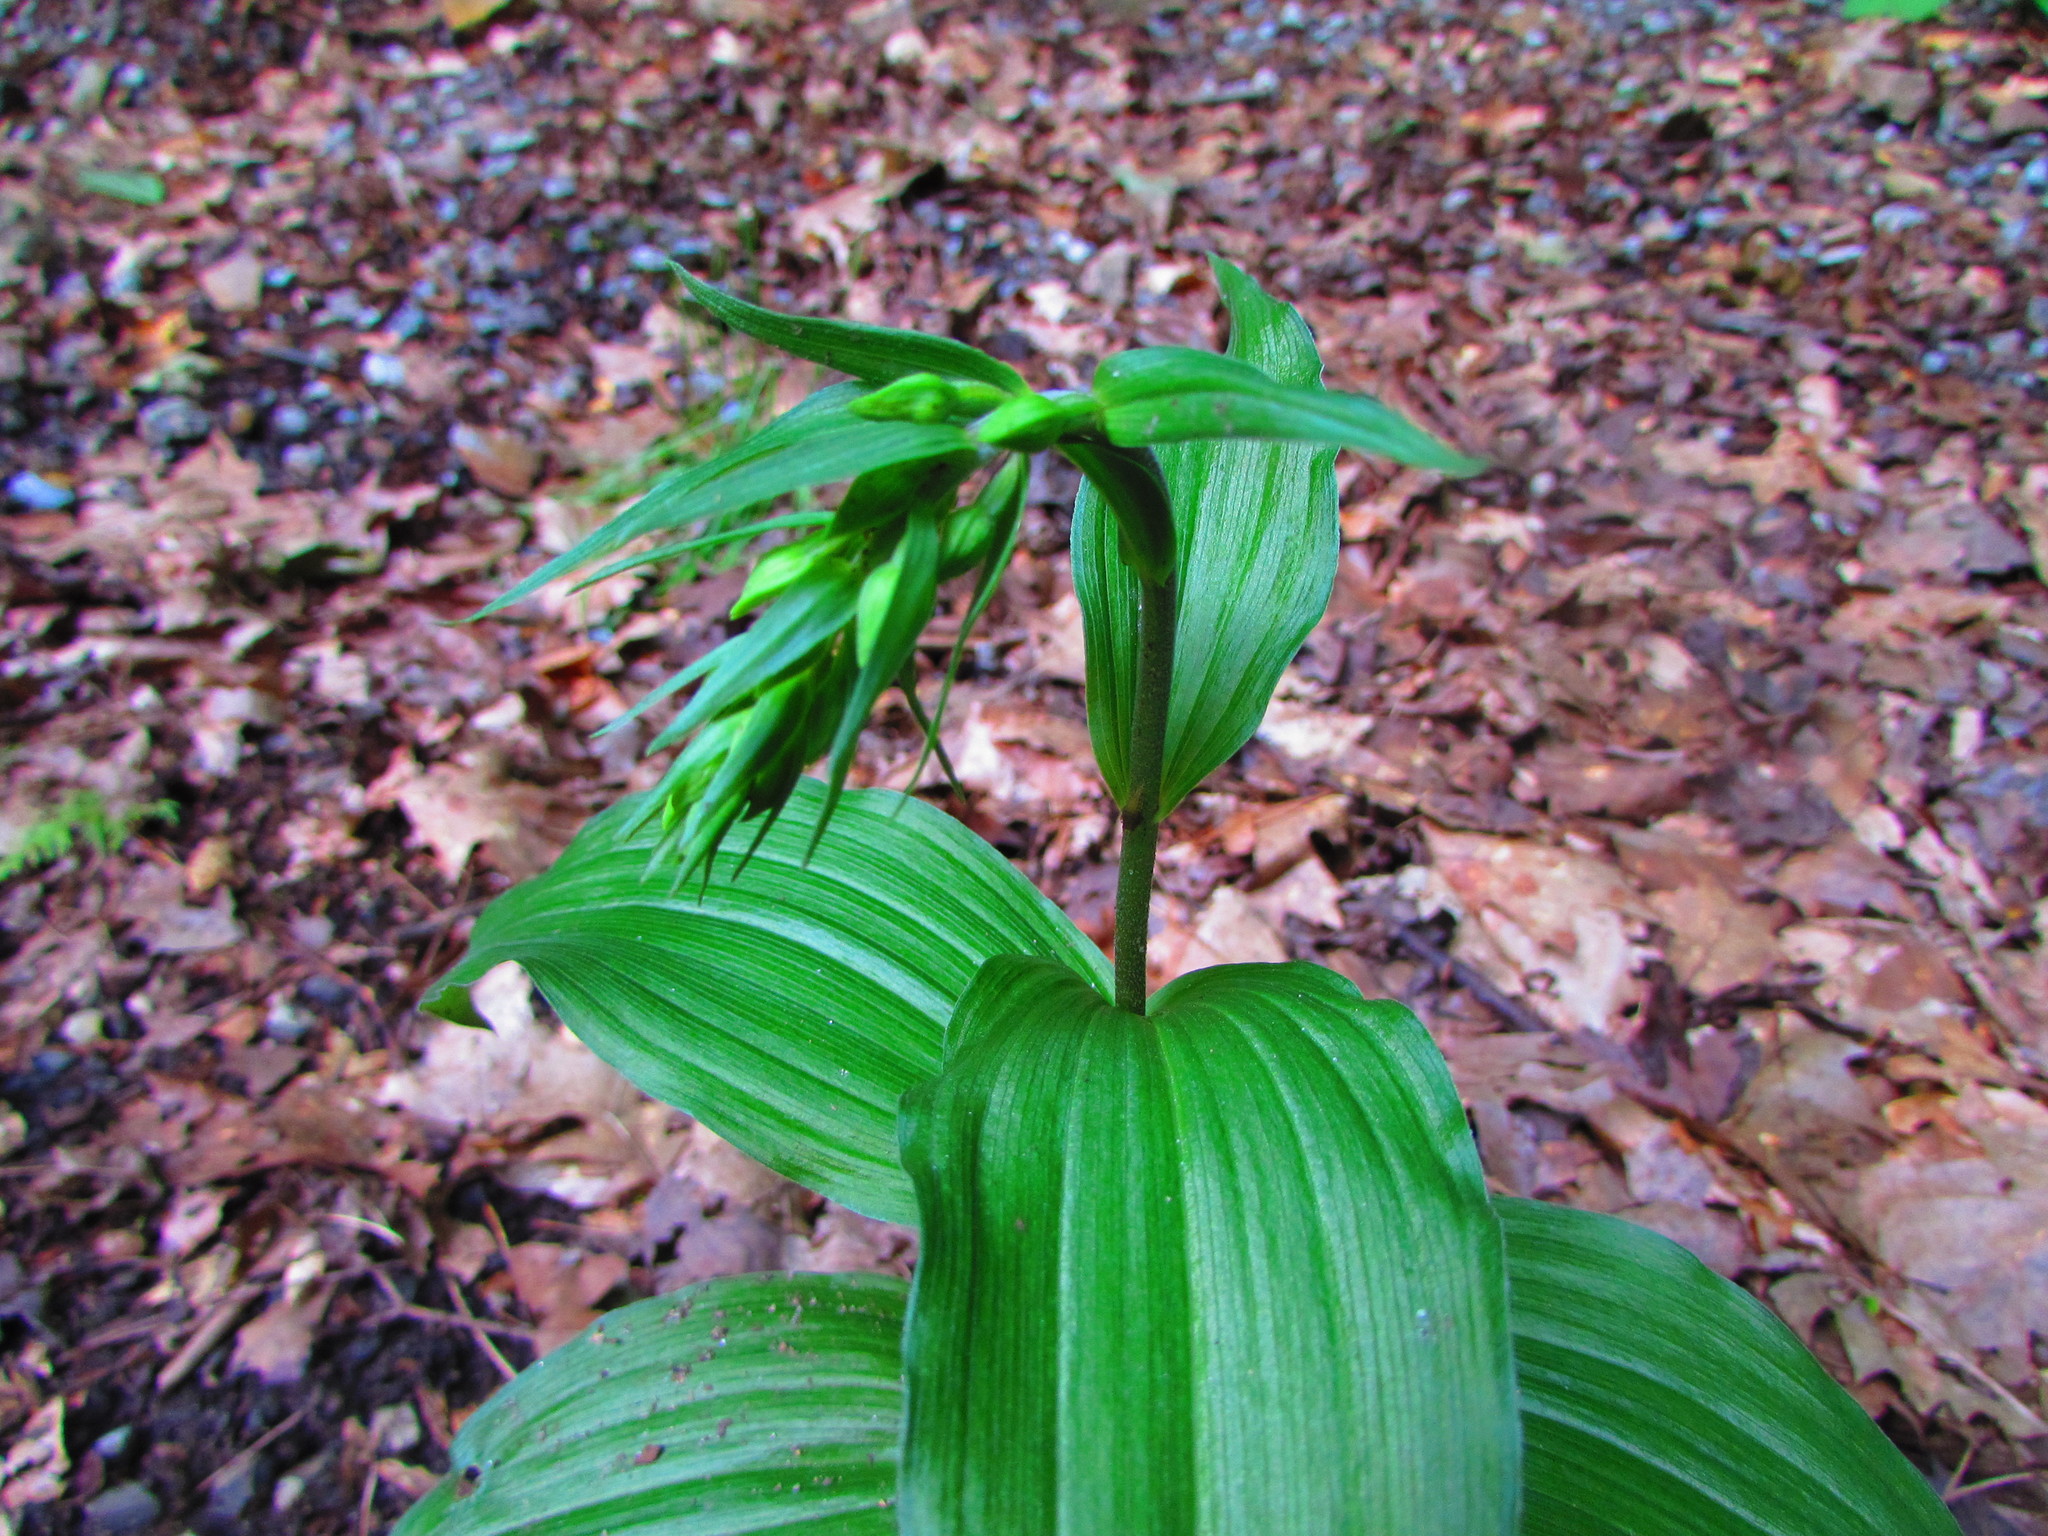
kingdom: Plantae
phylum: Tracheophyta
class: Liliopsida
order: Asparagales
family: Orchidaceae
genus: Epipactis
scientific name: Epipactis helleborine
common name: Broad-leaved helleborine
